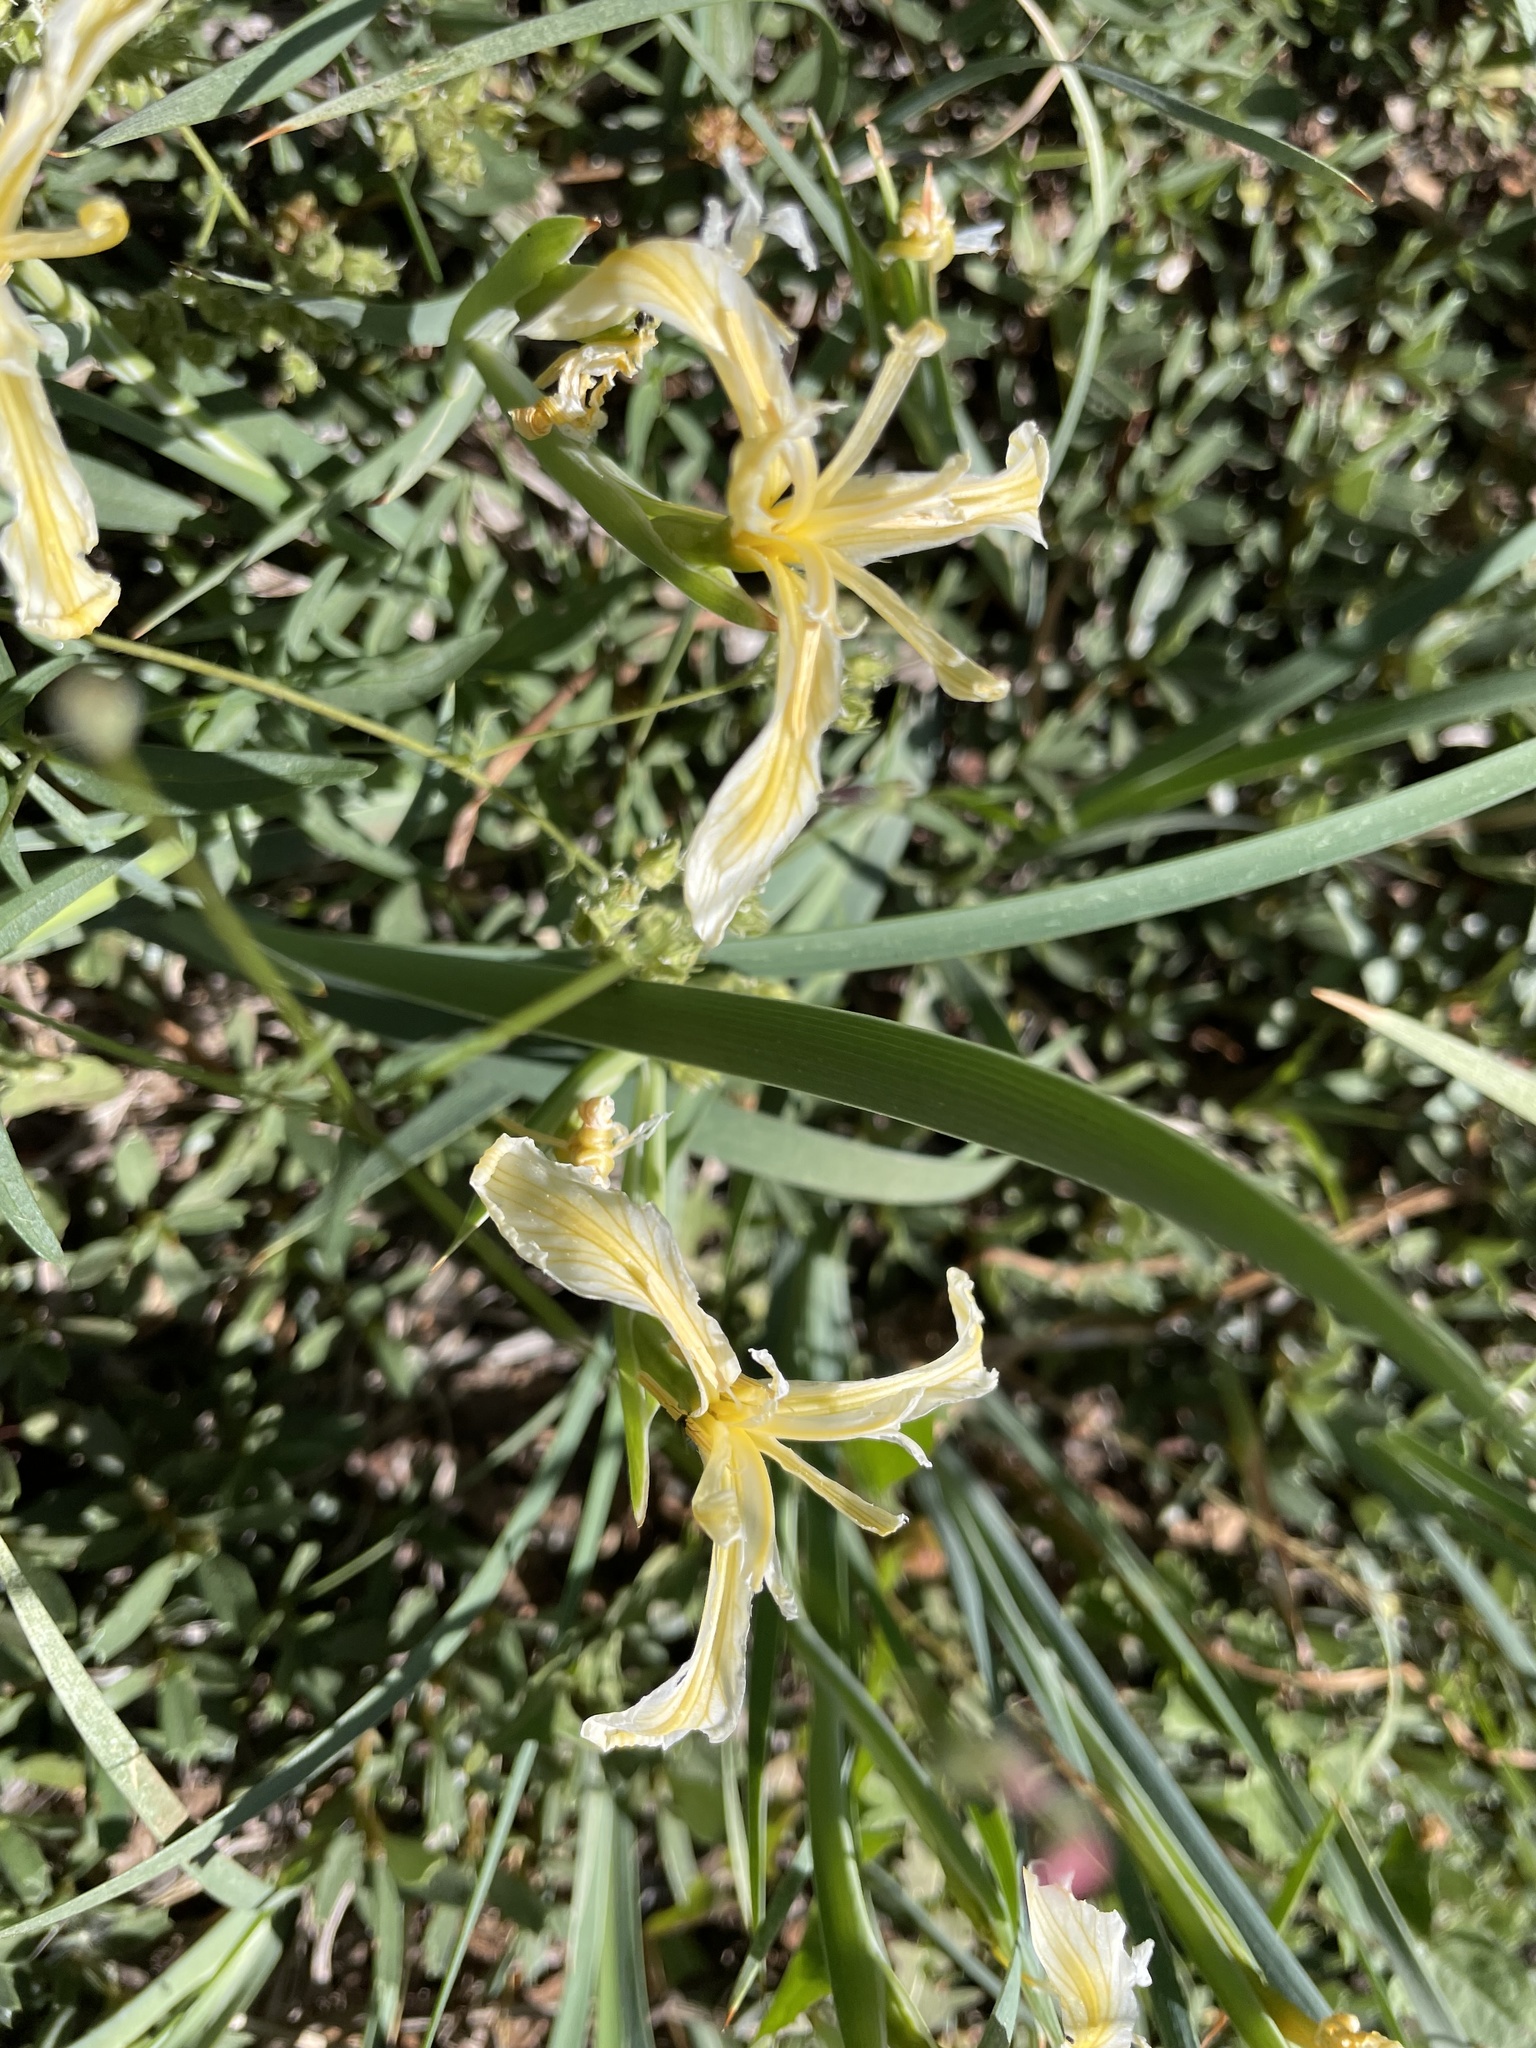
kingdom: Plantae
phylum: Tracheophyta
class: Liliopsida
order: Asparagales
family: Iridaceae
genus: Iris
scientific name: Iris hartwegii
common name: Sierra iris
